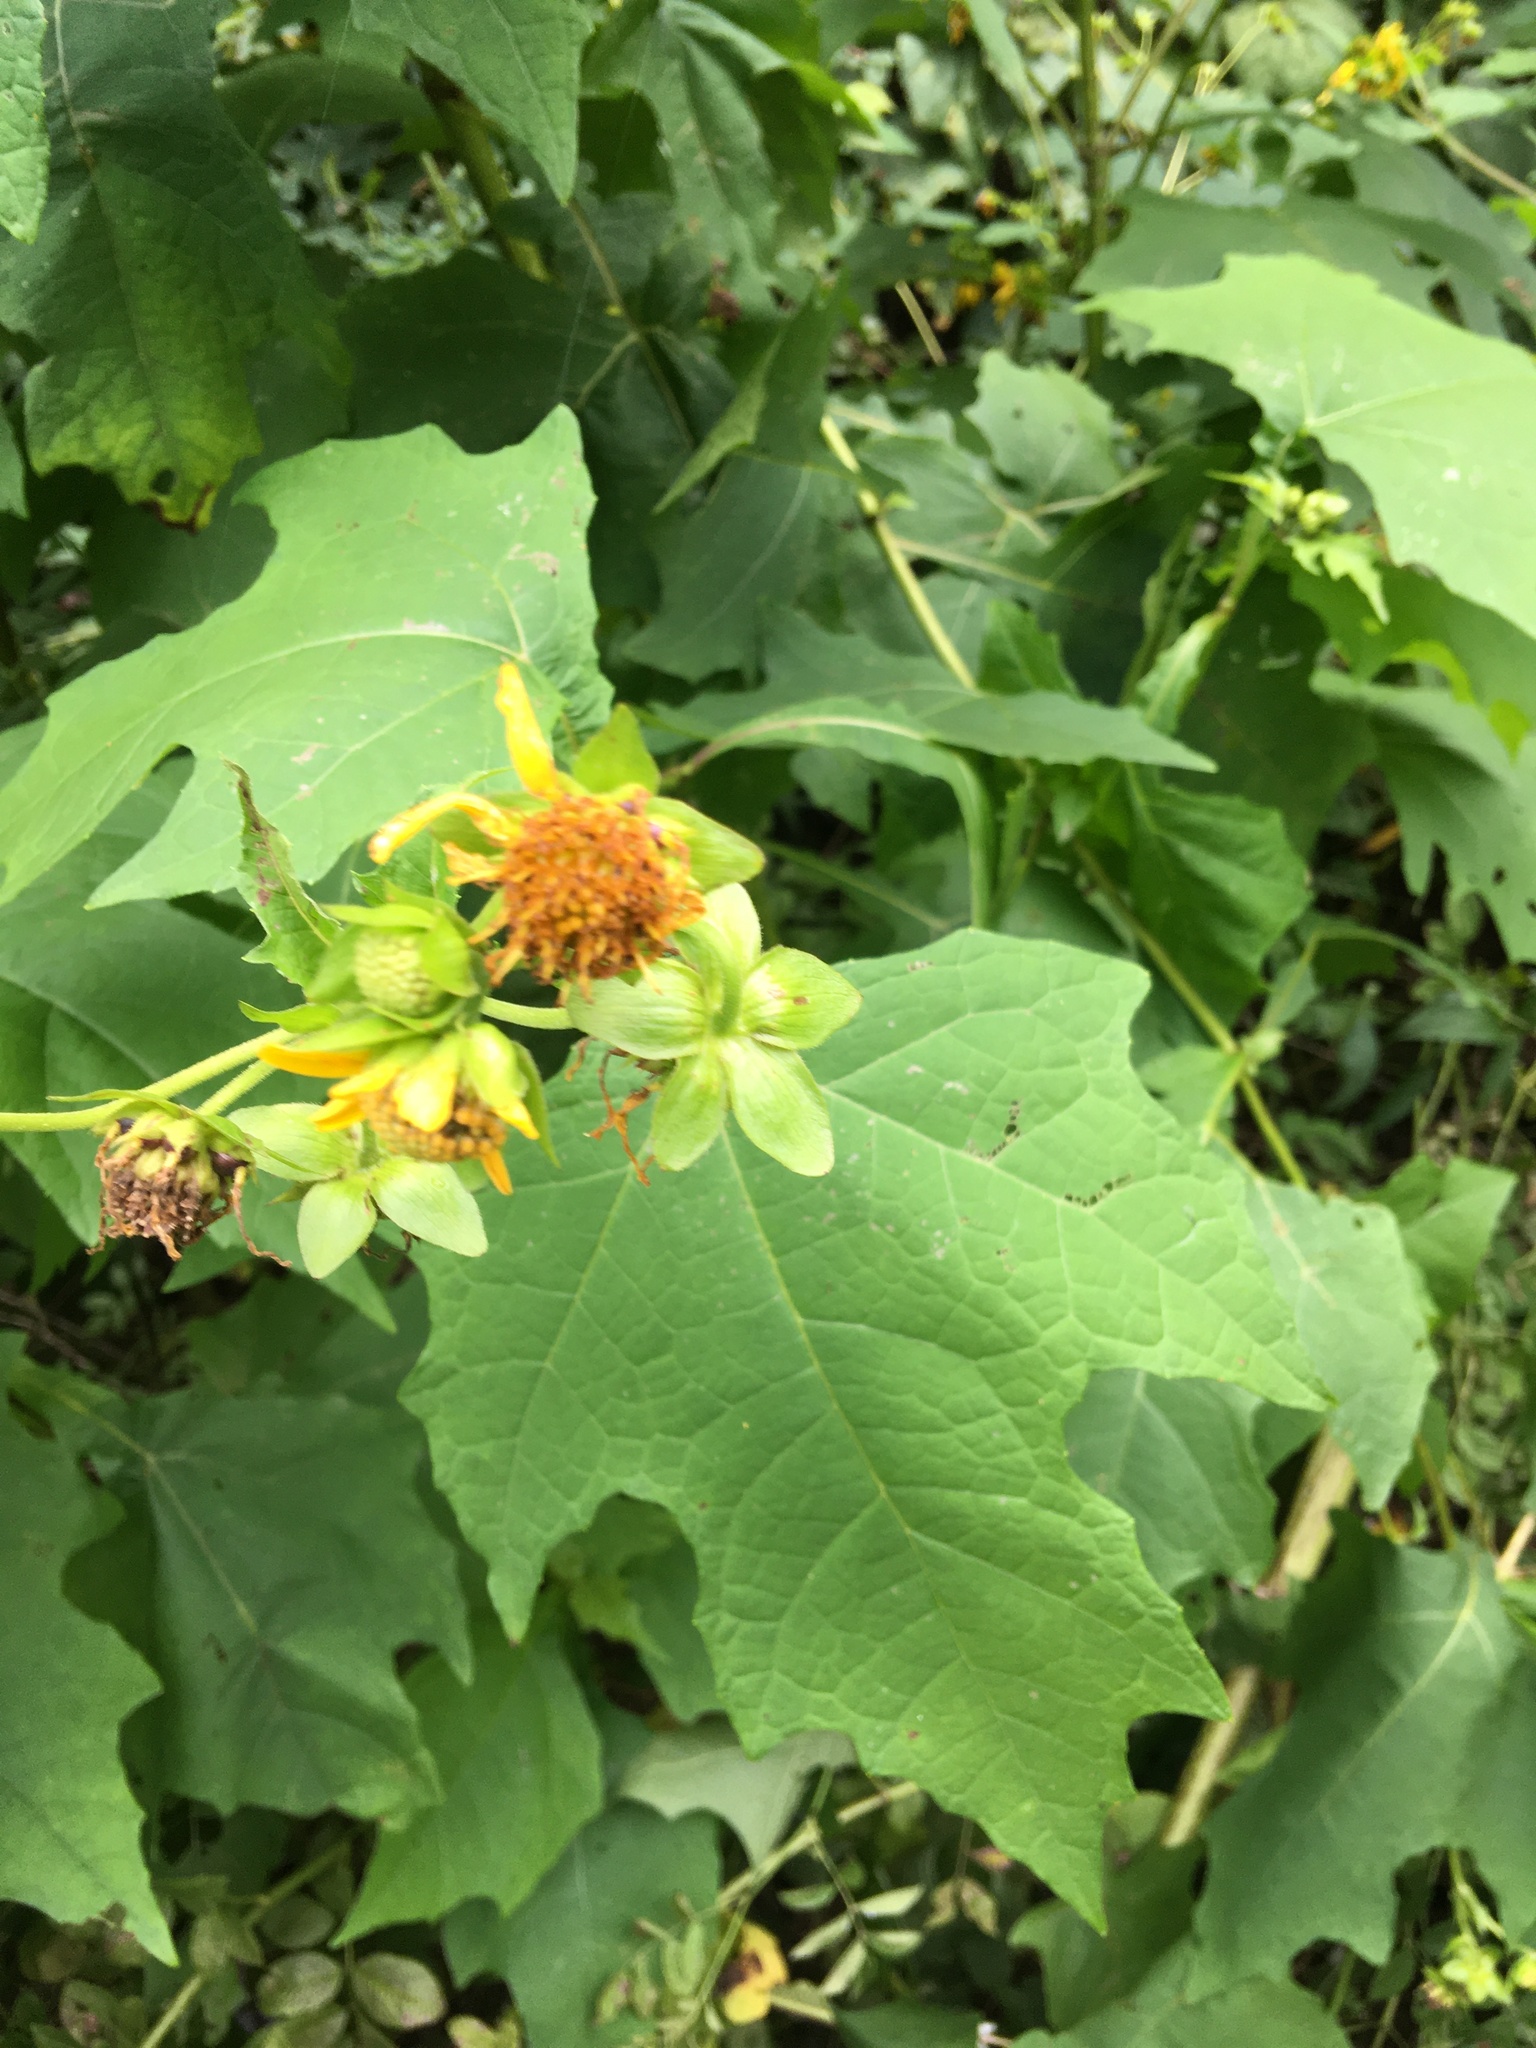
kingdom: Plantae
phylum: Tracheophyta
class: Magnoliopsida
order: Asterales
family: Asteraceae
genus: Smallanthus
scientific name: Smallanthus uvedalia
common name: Bear's-foot
